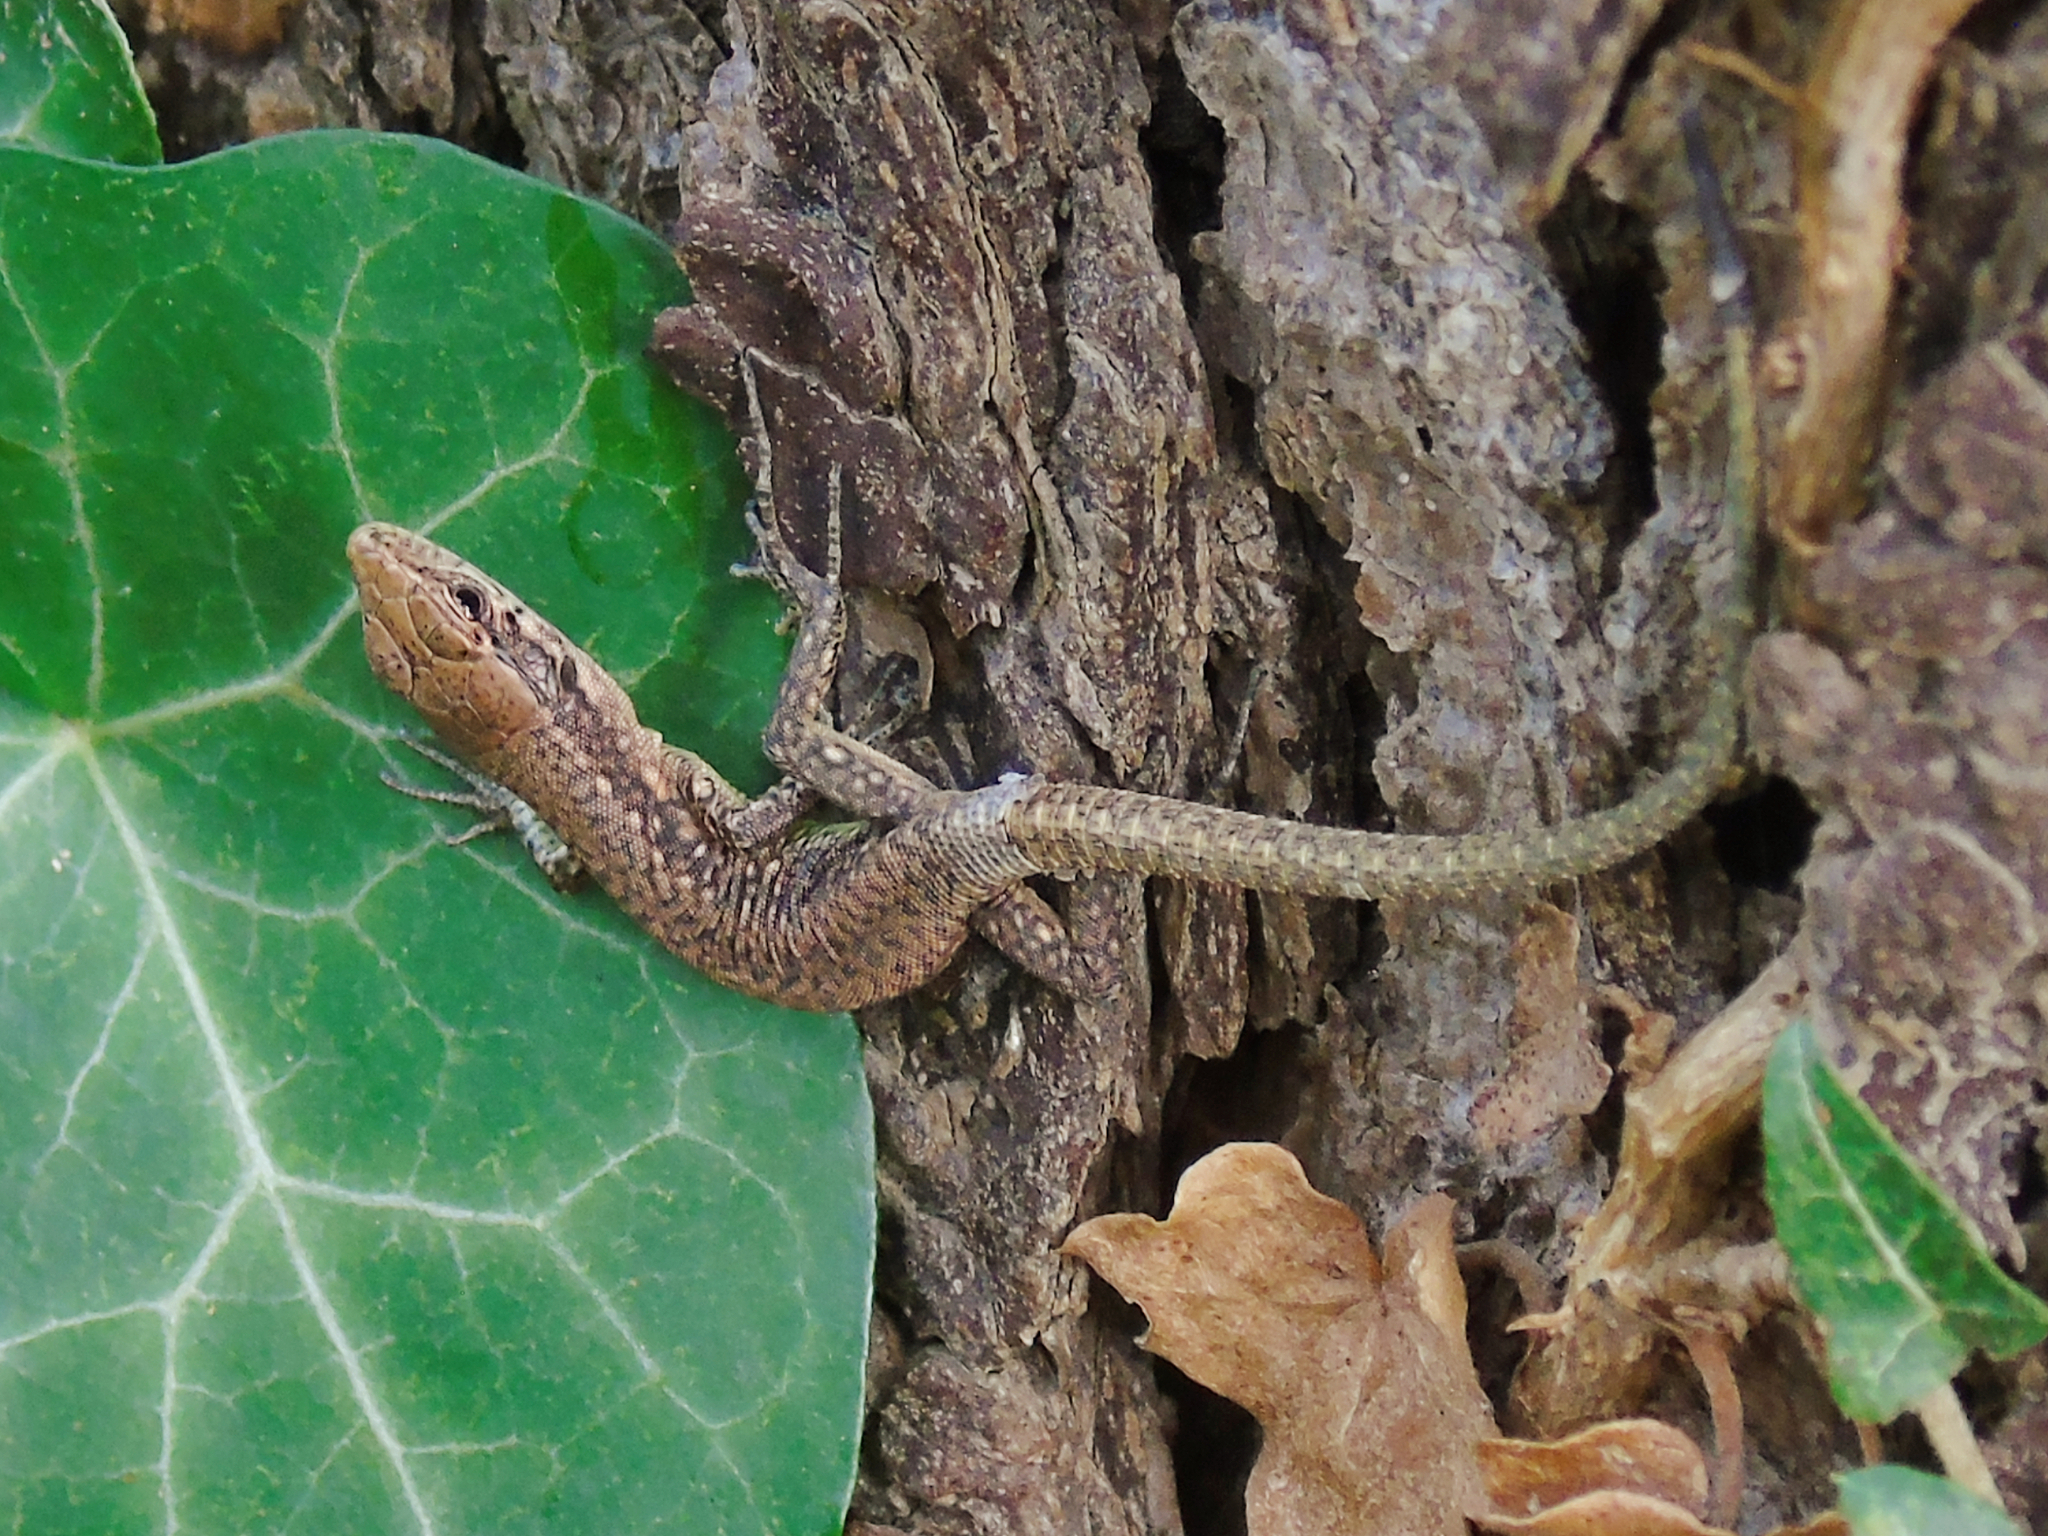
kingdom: Animalia
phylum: Chordata
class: Squamata
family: Lacertidae
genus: Darevskia
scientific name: Darevskia rudis
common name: Spiny-tailed lizard
